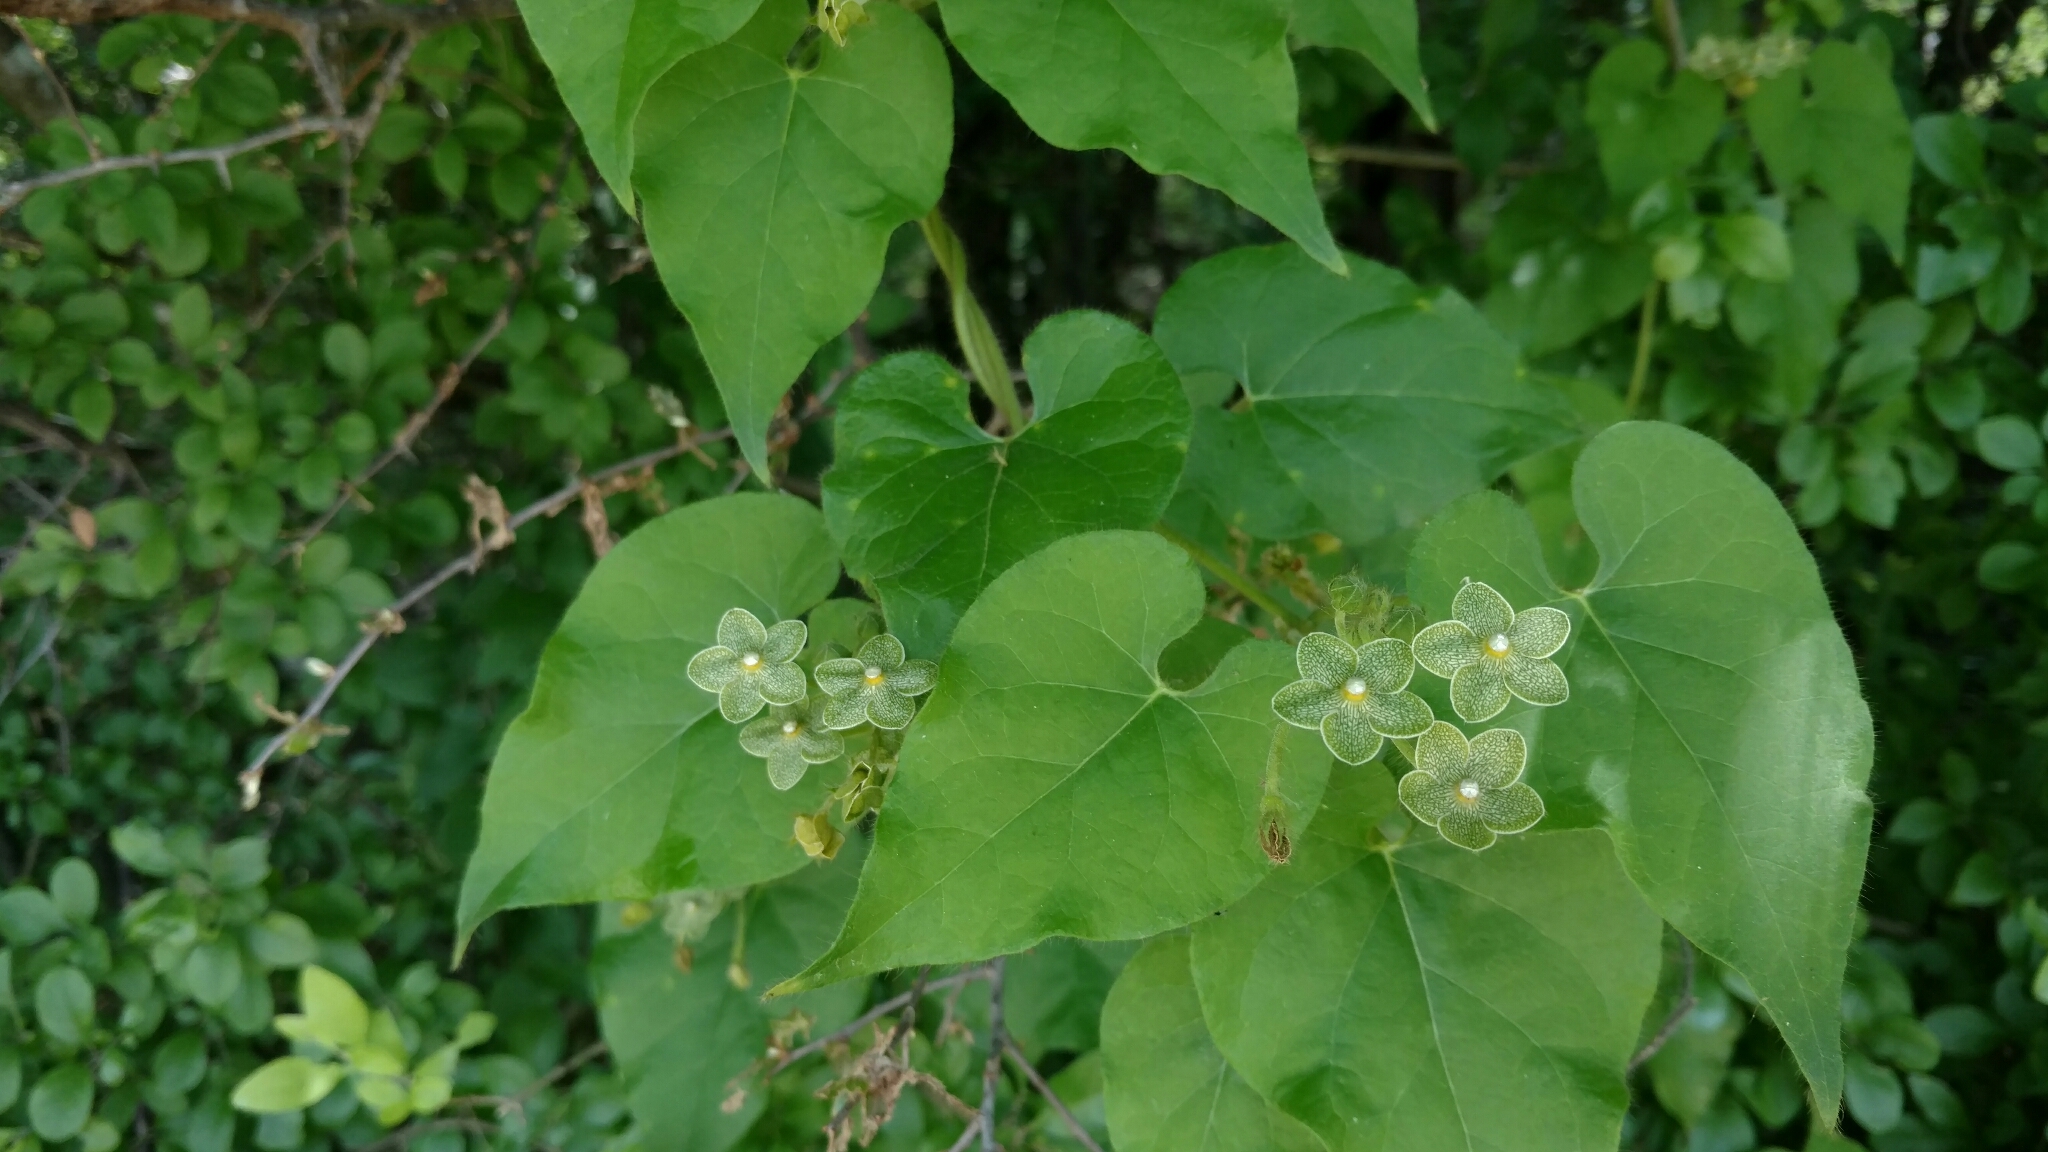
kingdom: Plantae
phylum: Tracheophyta
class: Magnoliopsida
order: Gentianales
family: Apocynaceae
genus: Dictyanthus
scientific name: Dictyanthus reticulatus
